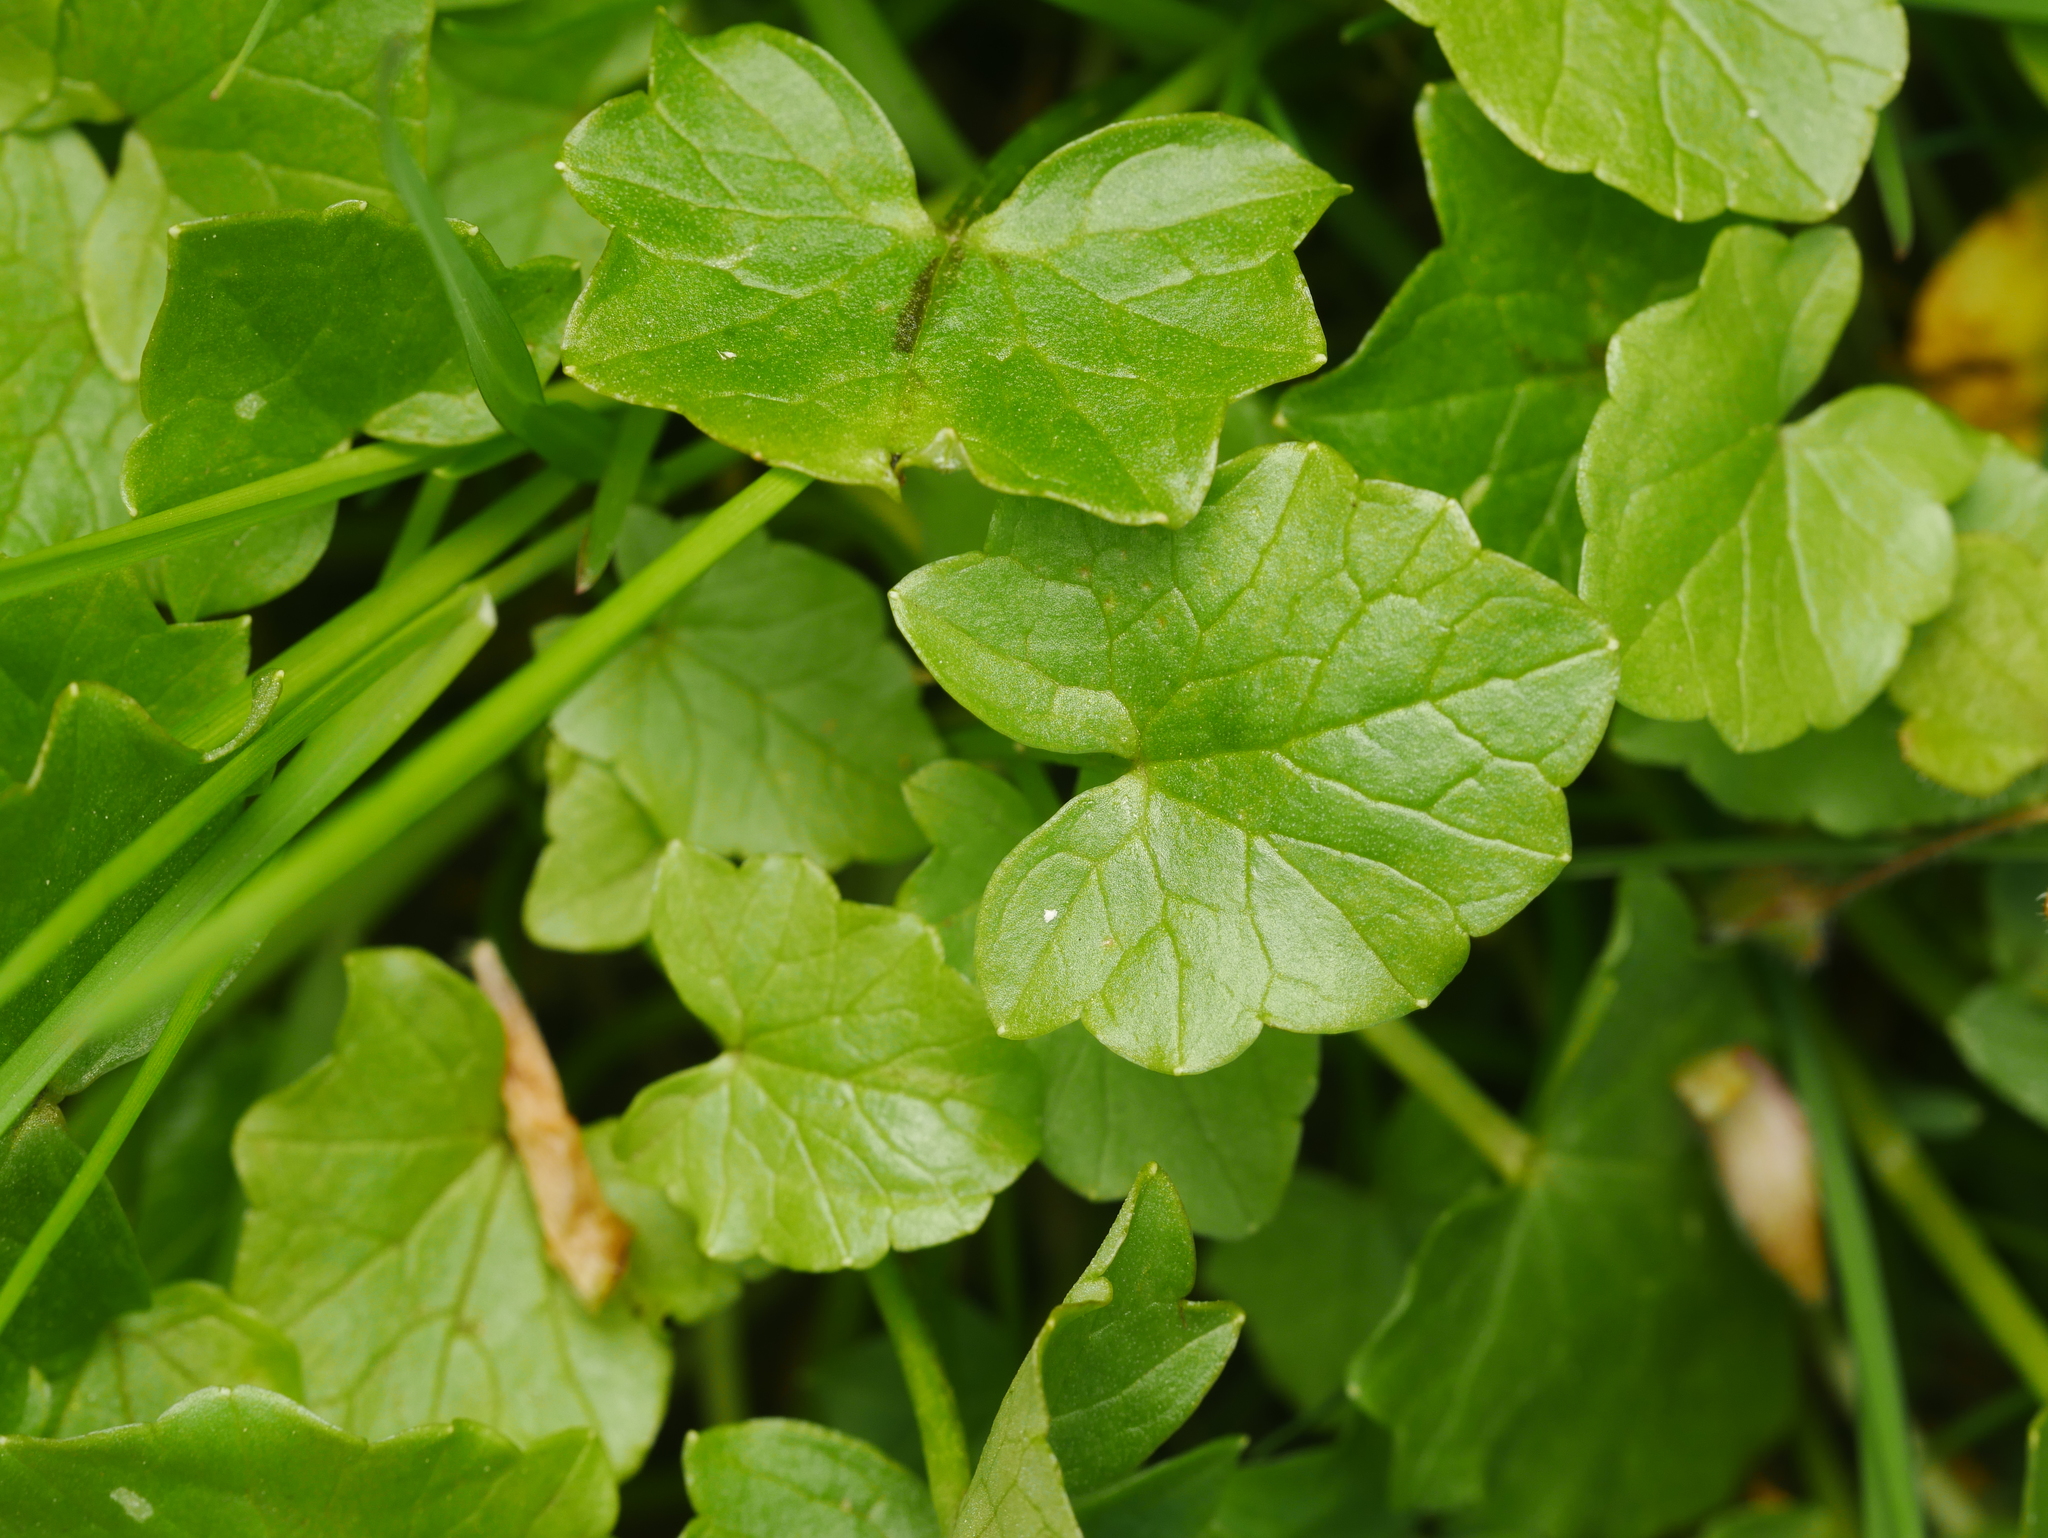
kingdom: Plantae
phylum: Tracheophyta
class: Magnoliopsida
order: Ranunculales
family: Ranunculaceae
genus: Ficaria
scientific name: Ficaria verna
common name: Lesser celandine
